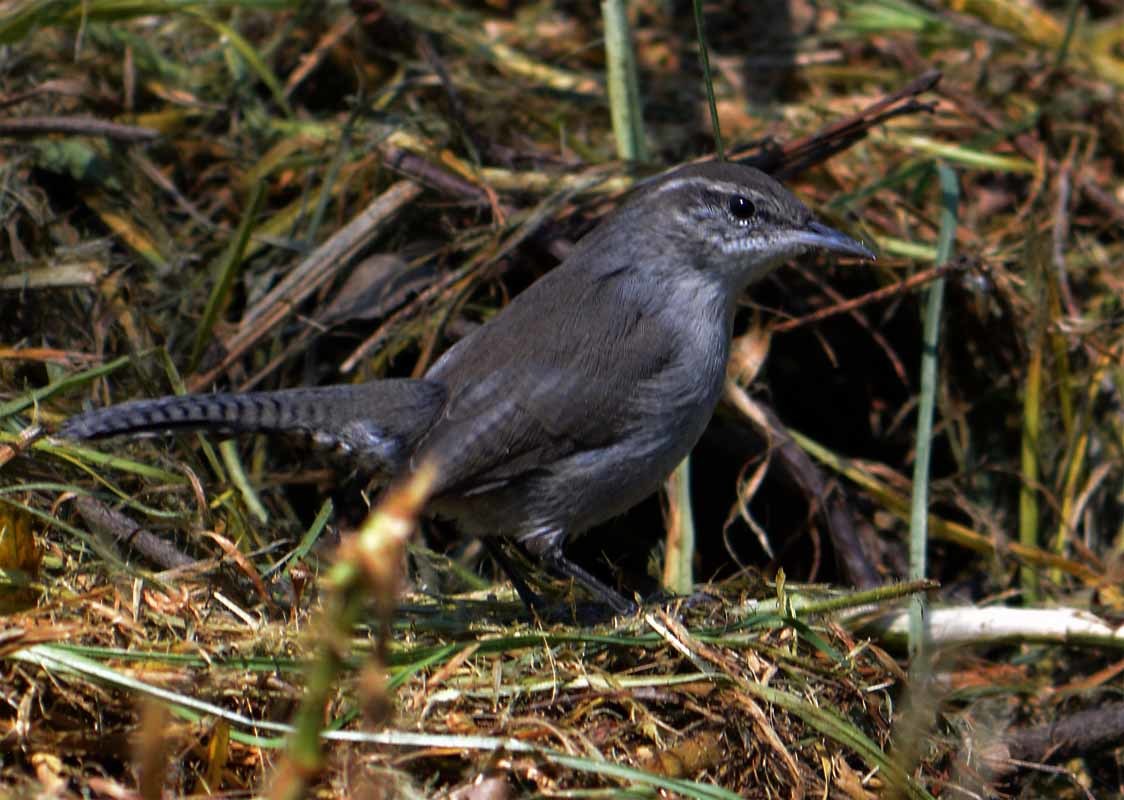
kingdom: Animalia
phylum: Chordata
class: Aves
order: Passeriformes
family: Troglodytidae
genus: Thryomanes
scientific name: Thryomanes bewickii
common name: Bewick's wren
